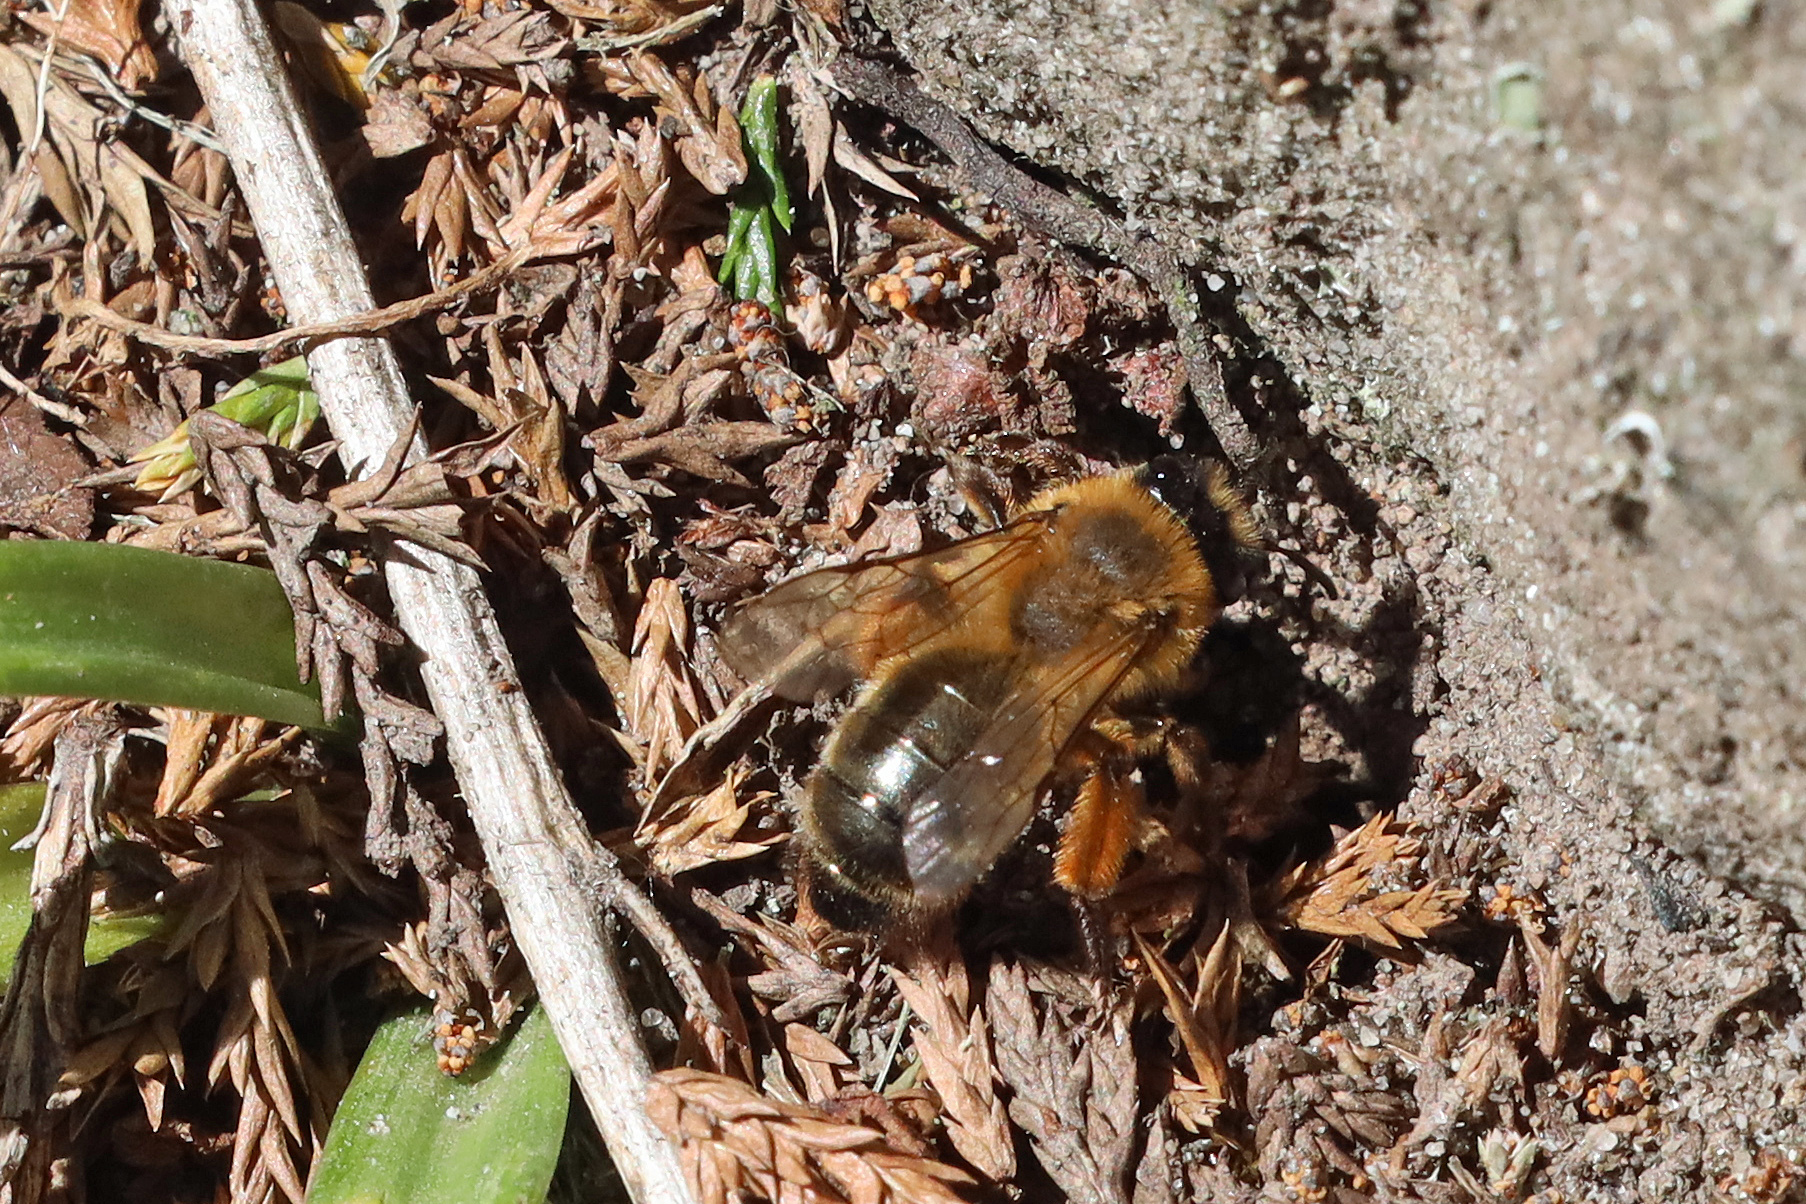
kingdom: Animalia
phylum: Arthropoda
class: Insecta
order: Hymenoptera
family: Andrenidae
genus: Andrena
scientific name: Andrena nigroaenea
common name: Buffish mining bee
